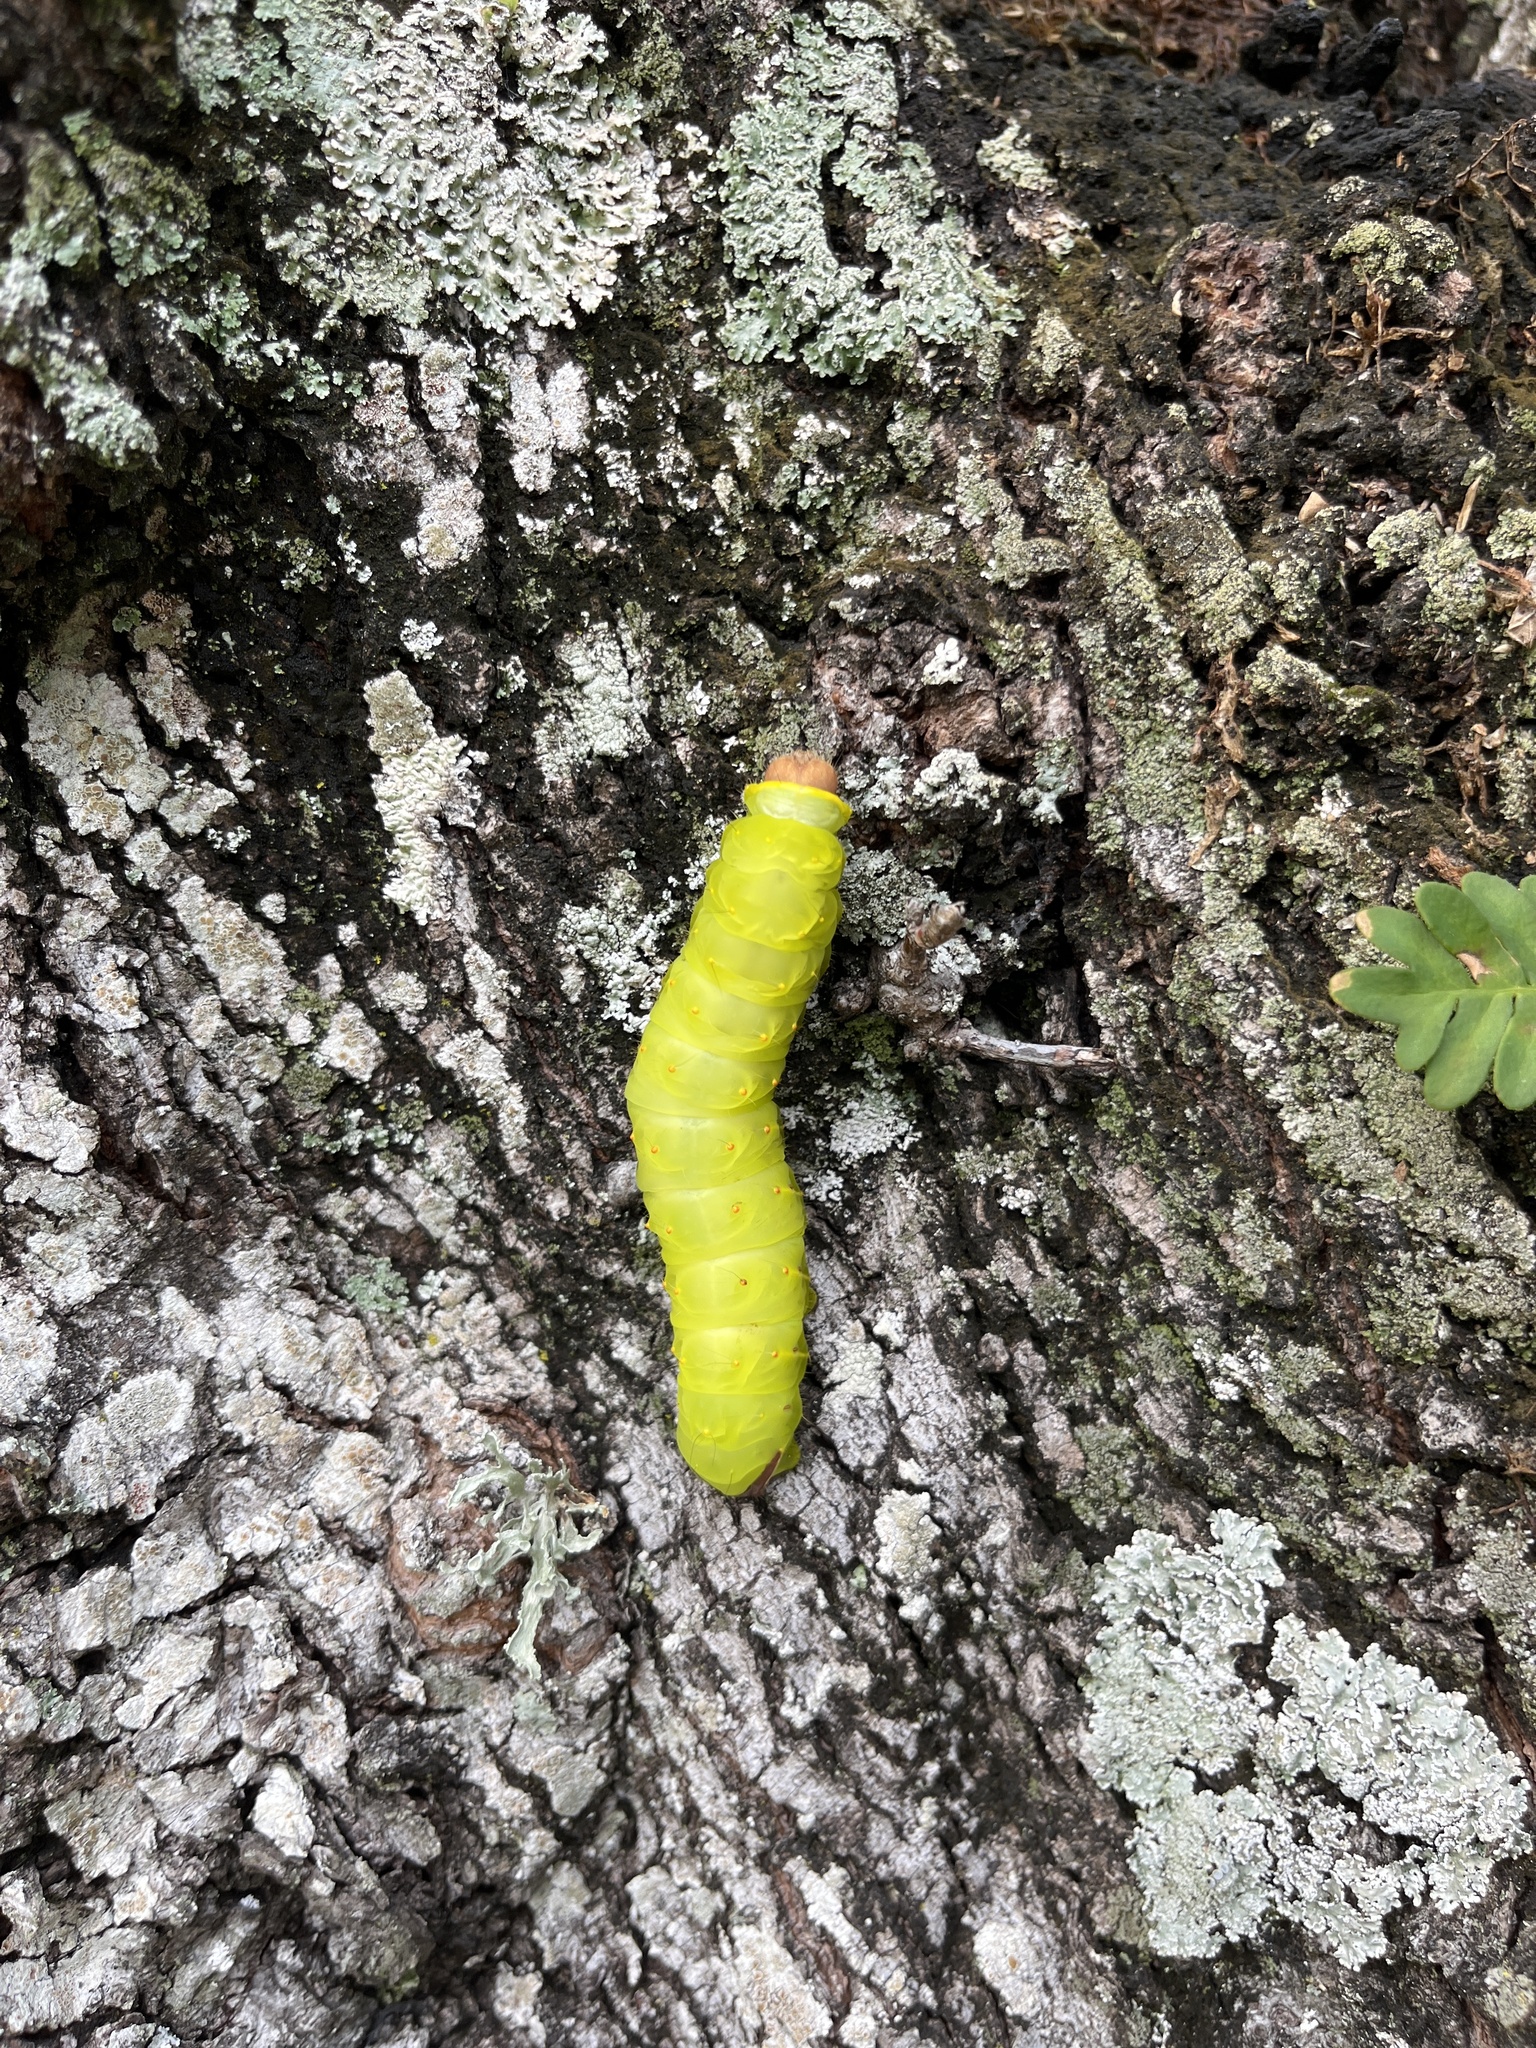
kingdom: Animalia
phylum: Arthropoda
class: Insecta
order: Lepidoptera
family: Saturniidae
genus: Antheraea
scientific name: Antheraea polyphemus
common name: Polyphemus moth
